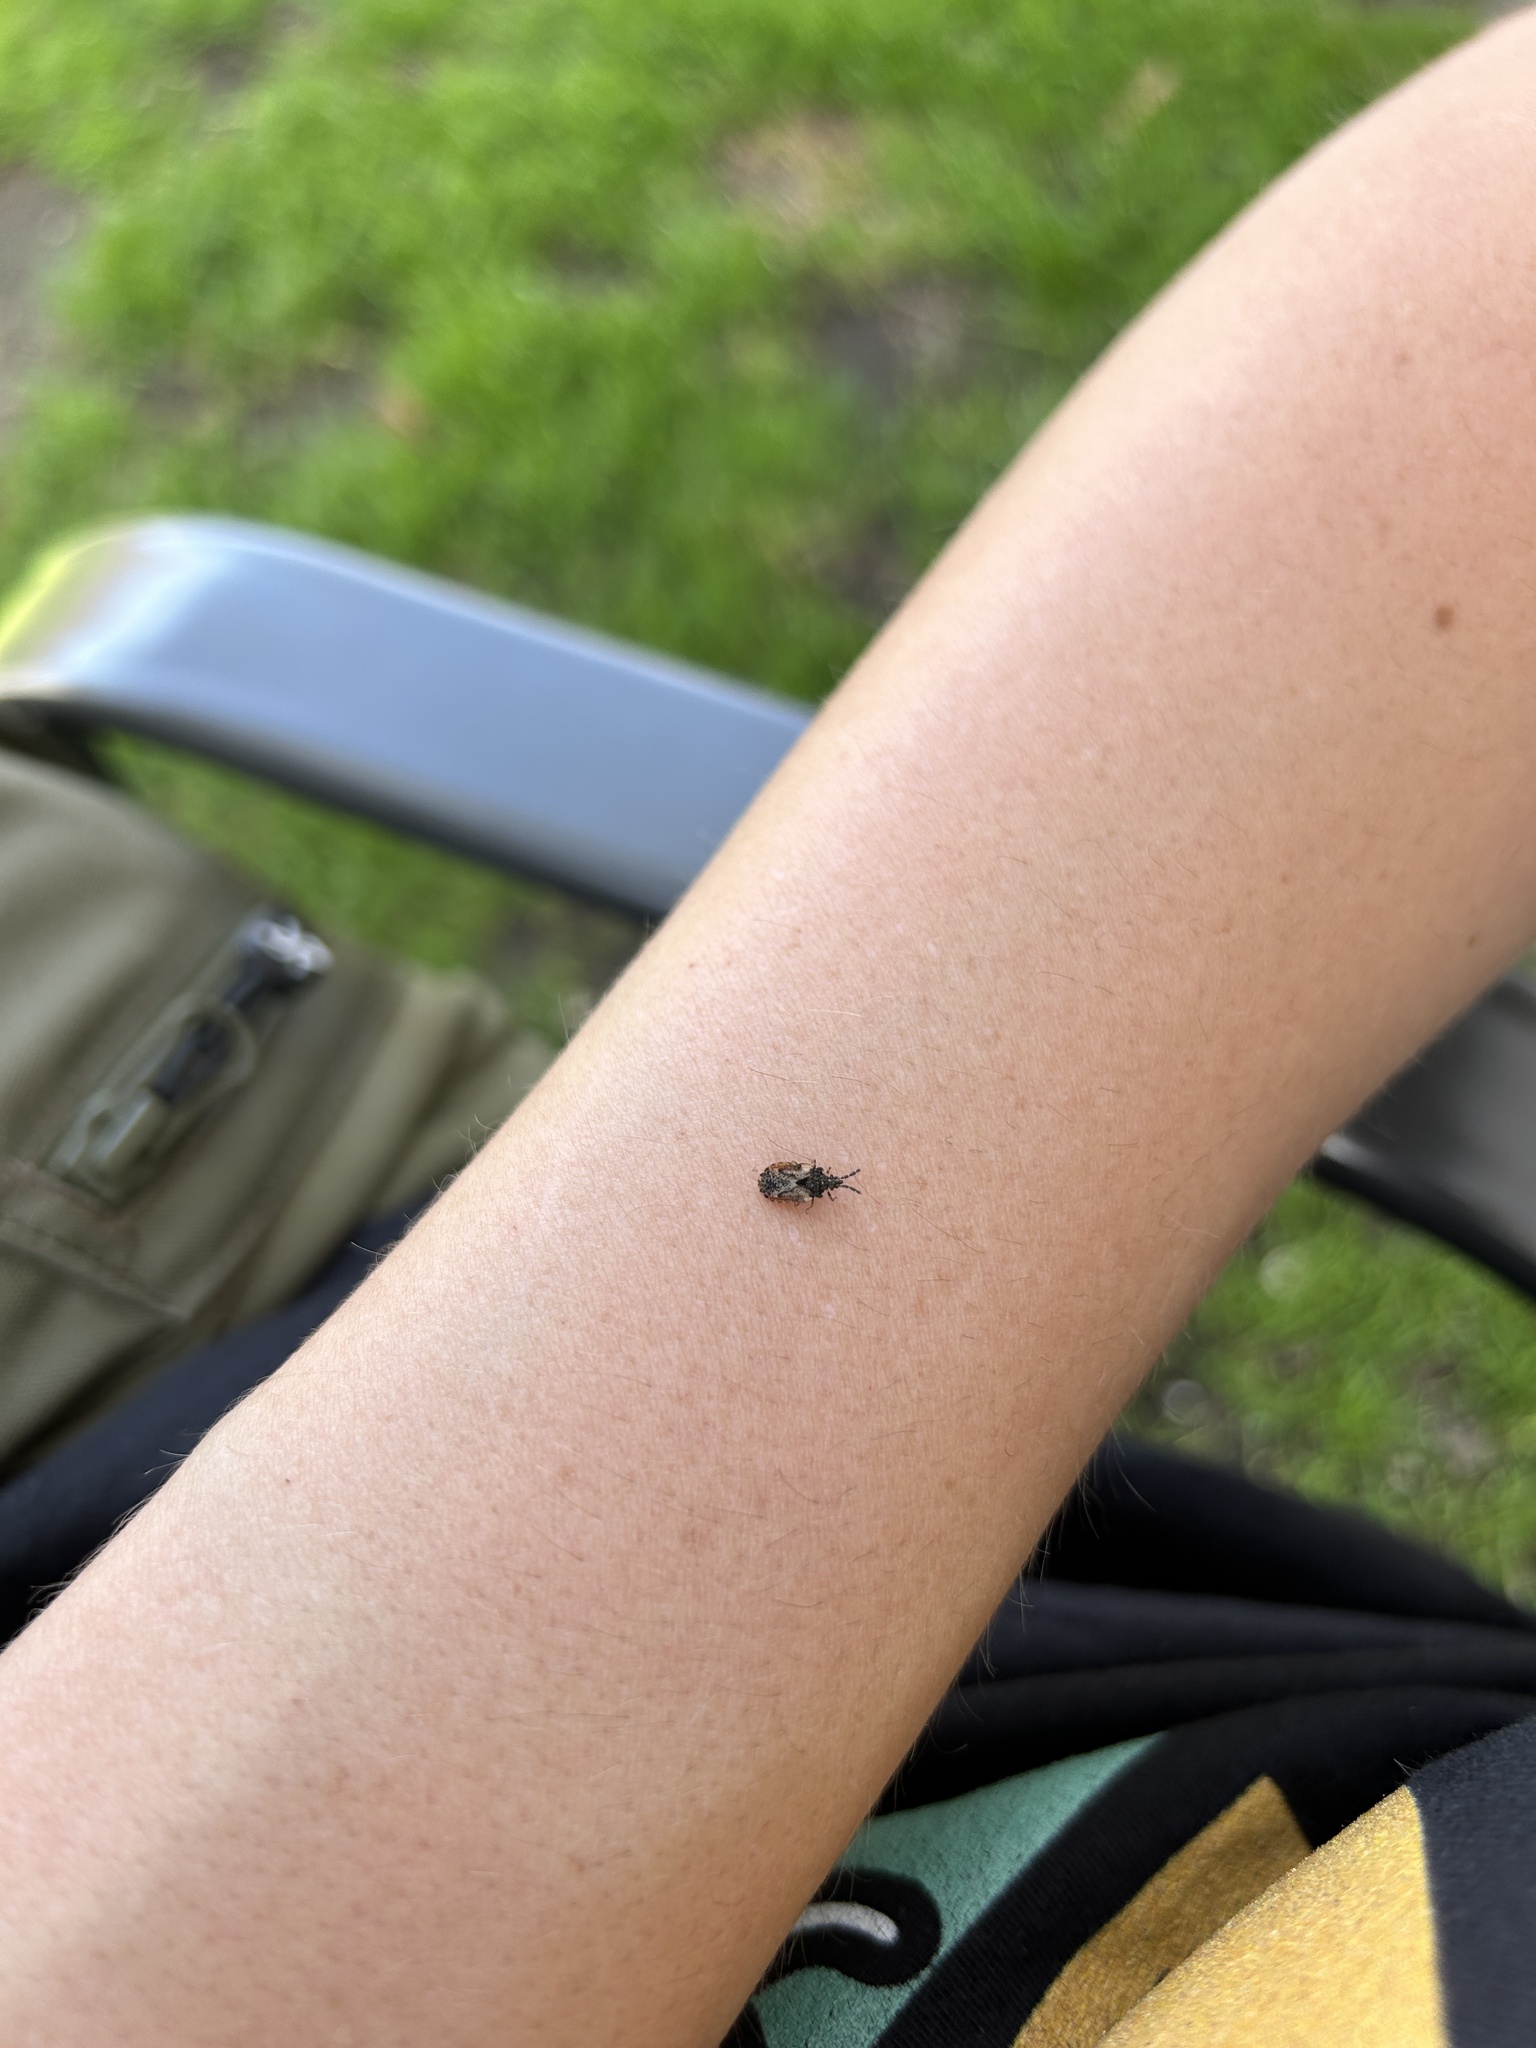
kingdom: Animalia
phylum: Arthropoda
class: Insecta
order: Hemiptera
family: Aradidae
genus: Aradus
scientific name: Aradus depressus
